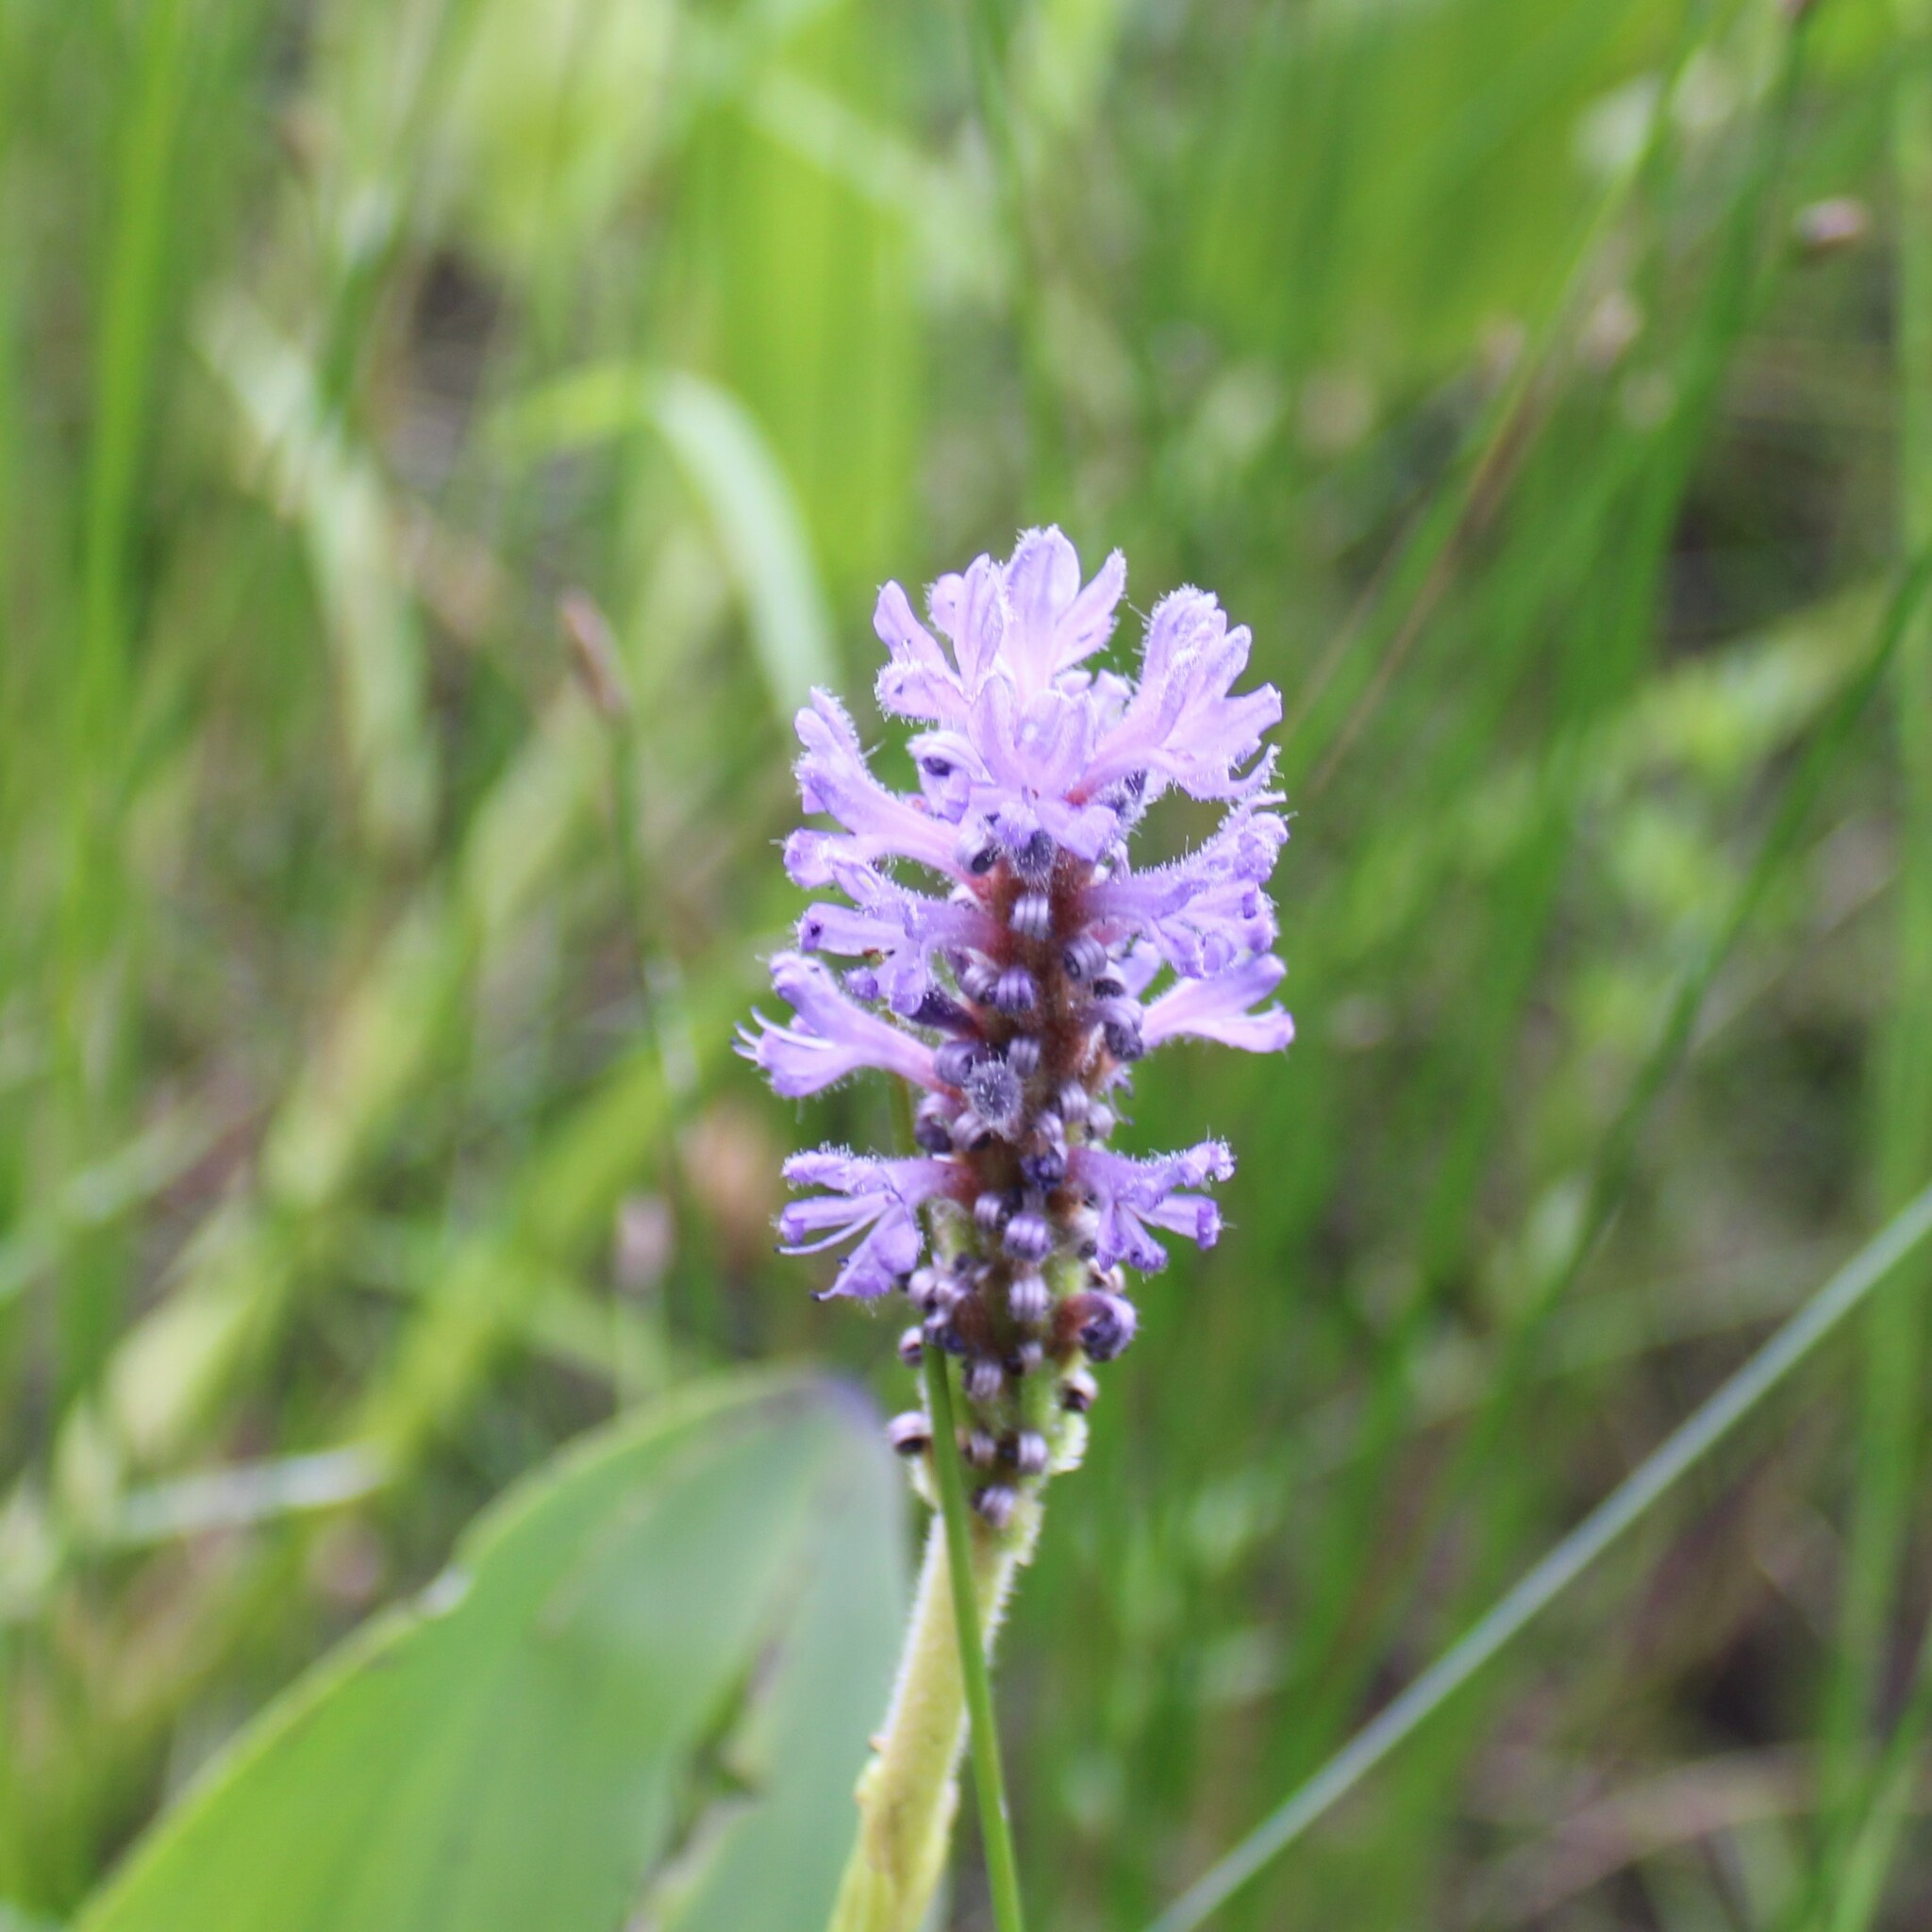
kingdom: Plantae
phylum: Tracheophyta
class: Liliopsida
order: Commelinales
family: Pontederiaceae
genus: Pontederia
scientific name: Pontederia cordata
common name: Pickerelweed
